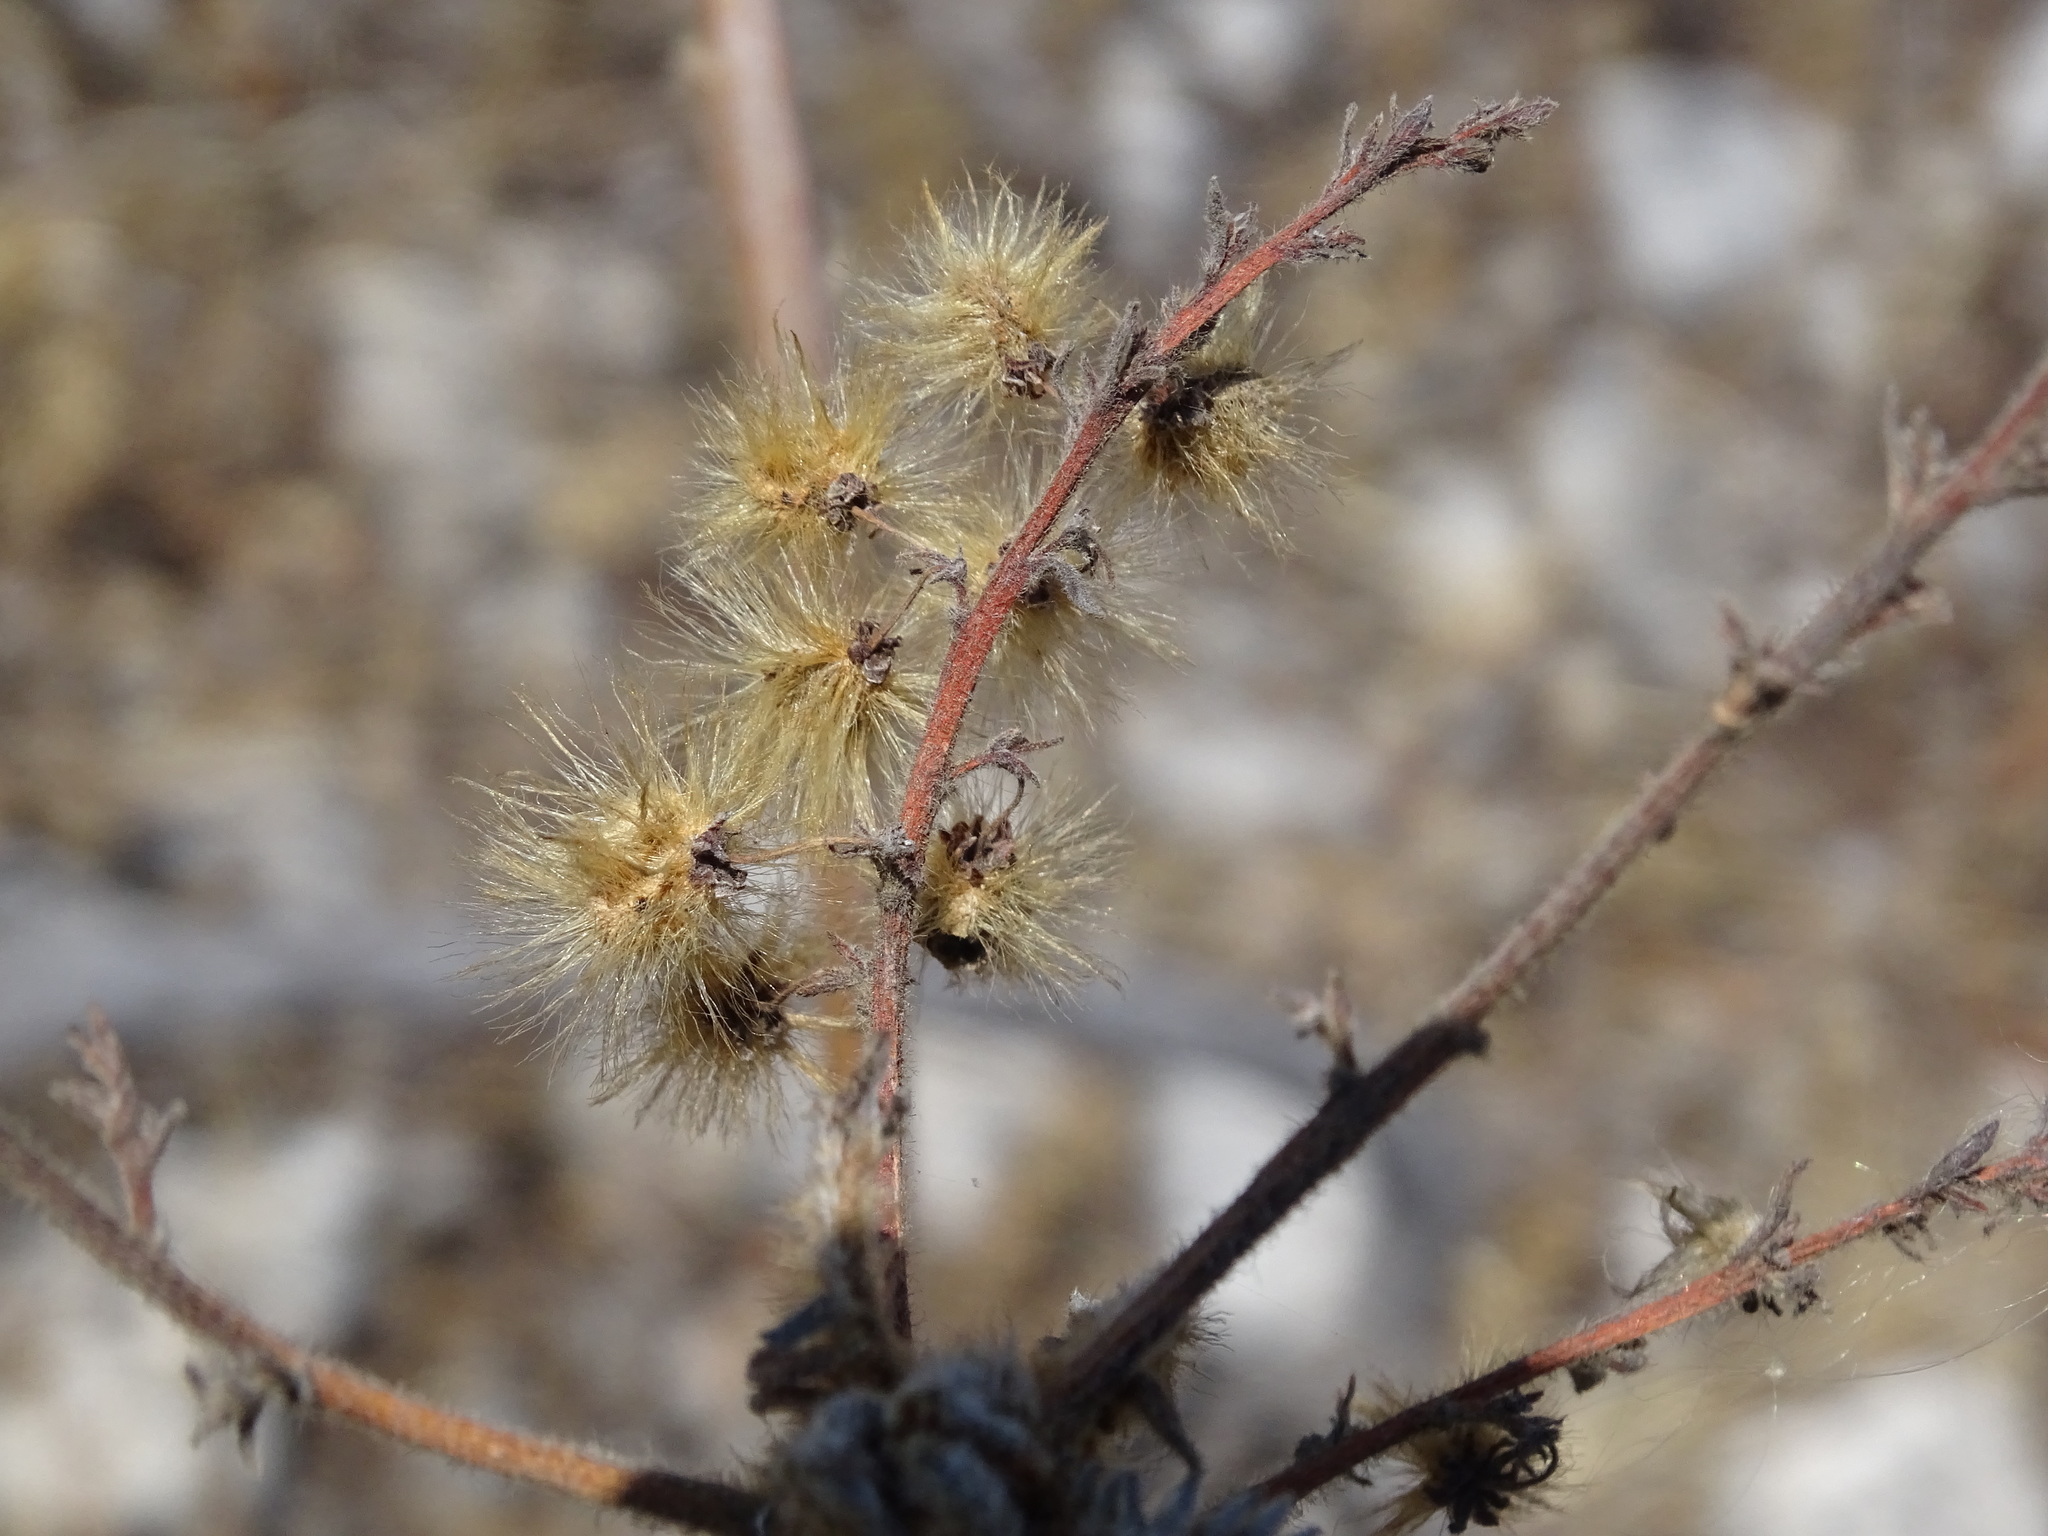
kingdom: Plantae
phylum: Tracheophyta
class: Magnoliopsida
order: Sapindales
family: Anacardiaceae
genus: Actinocheita
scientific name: Actinocheita filicina
